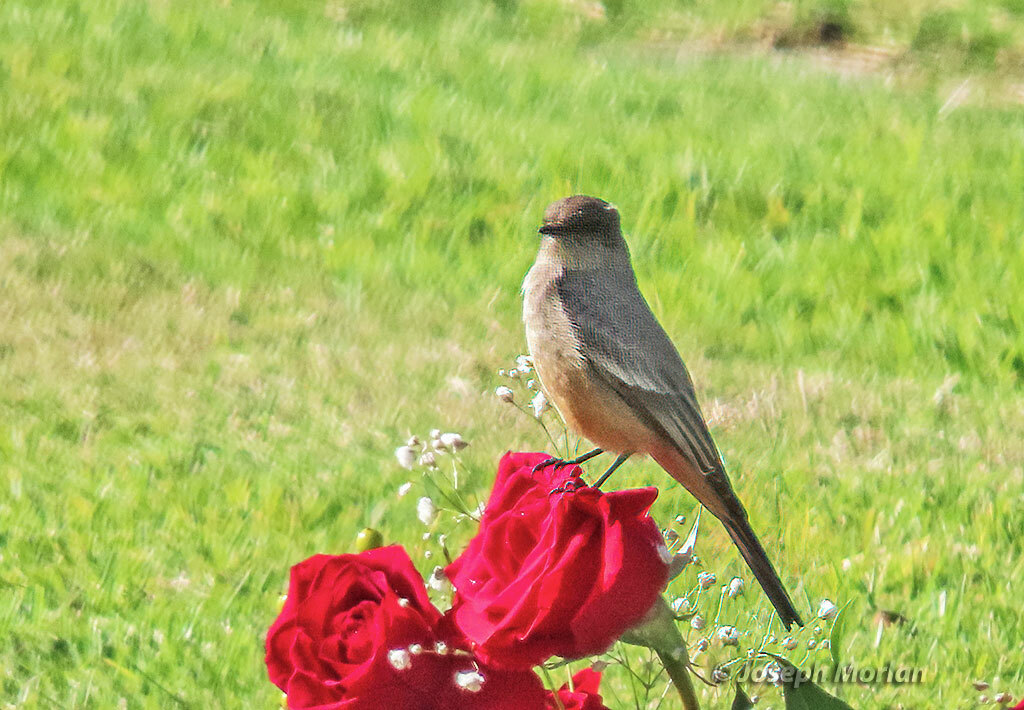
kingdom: Animalia
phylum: Chordata
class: Aves
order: Passeriformes
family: Tyrannidae
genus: Sayornis
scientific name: Sayornis saya
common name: Say's phoebe
